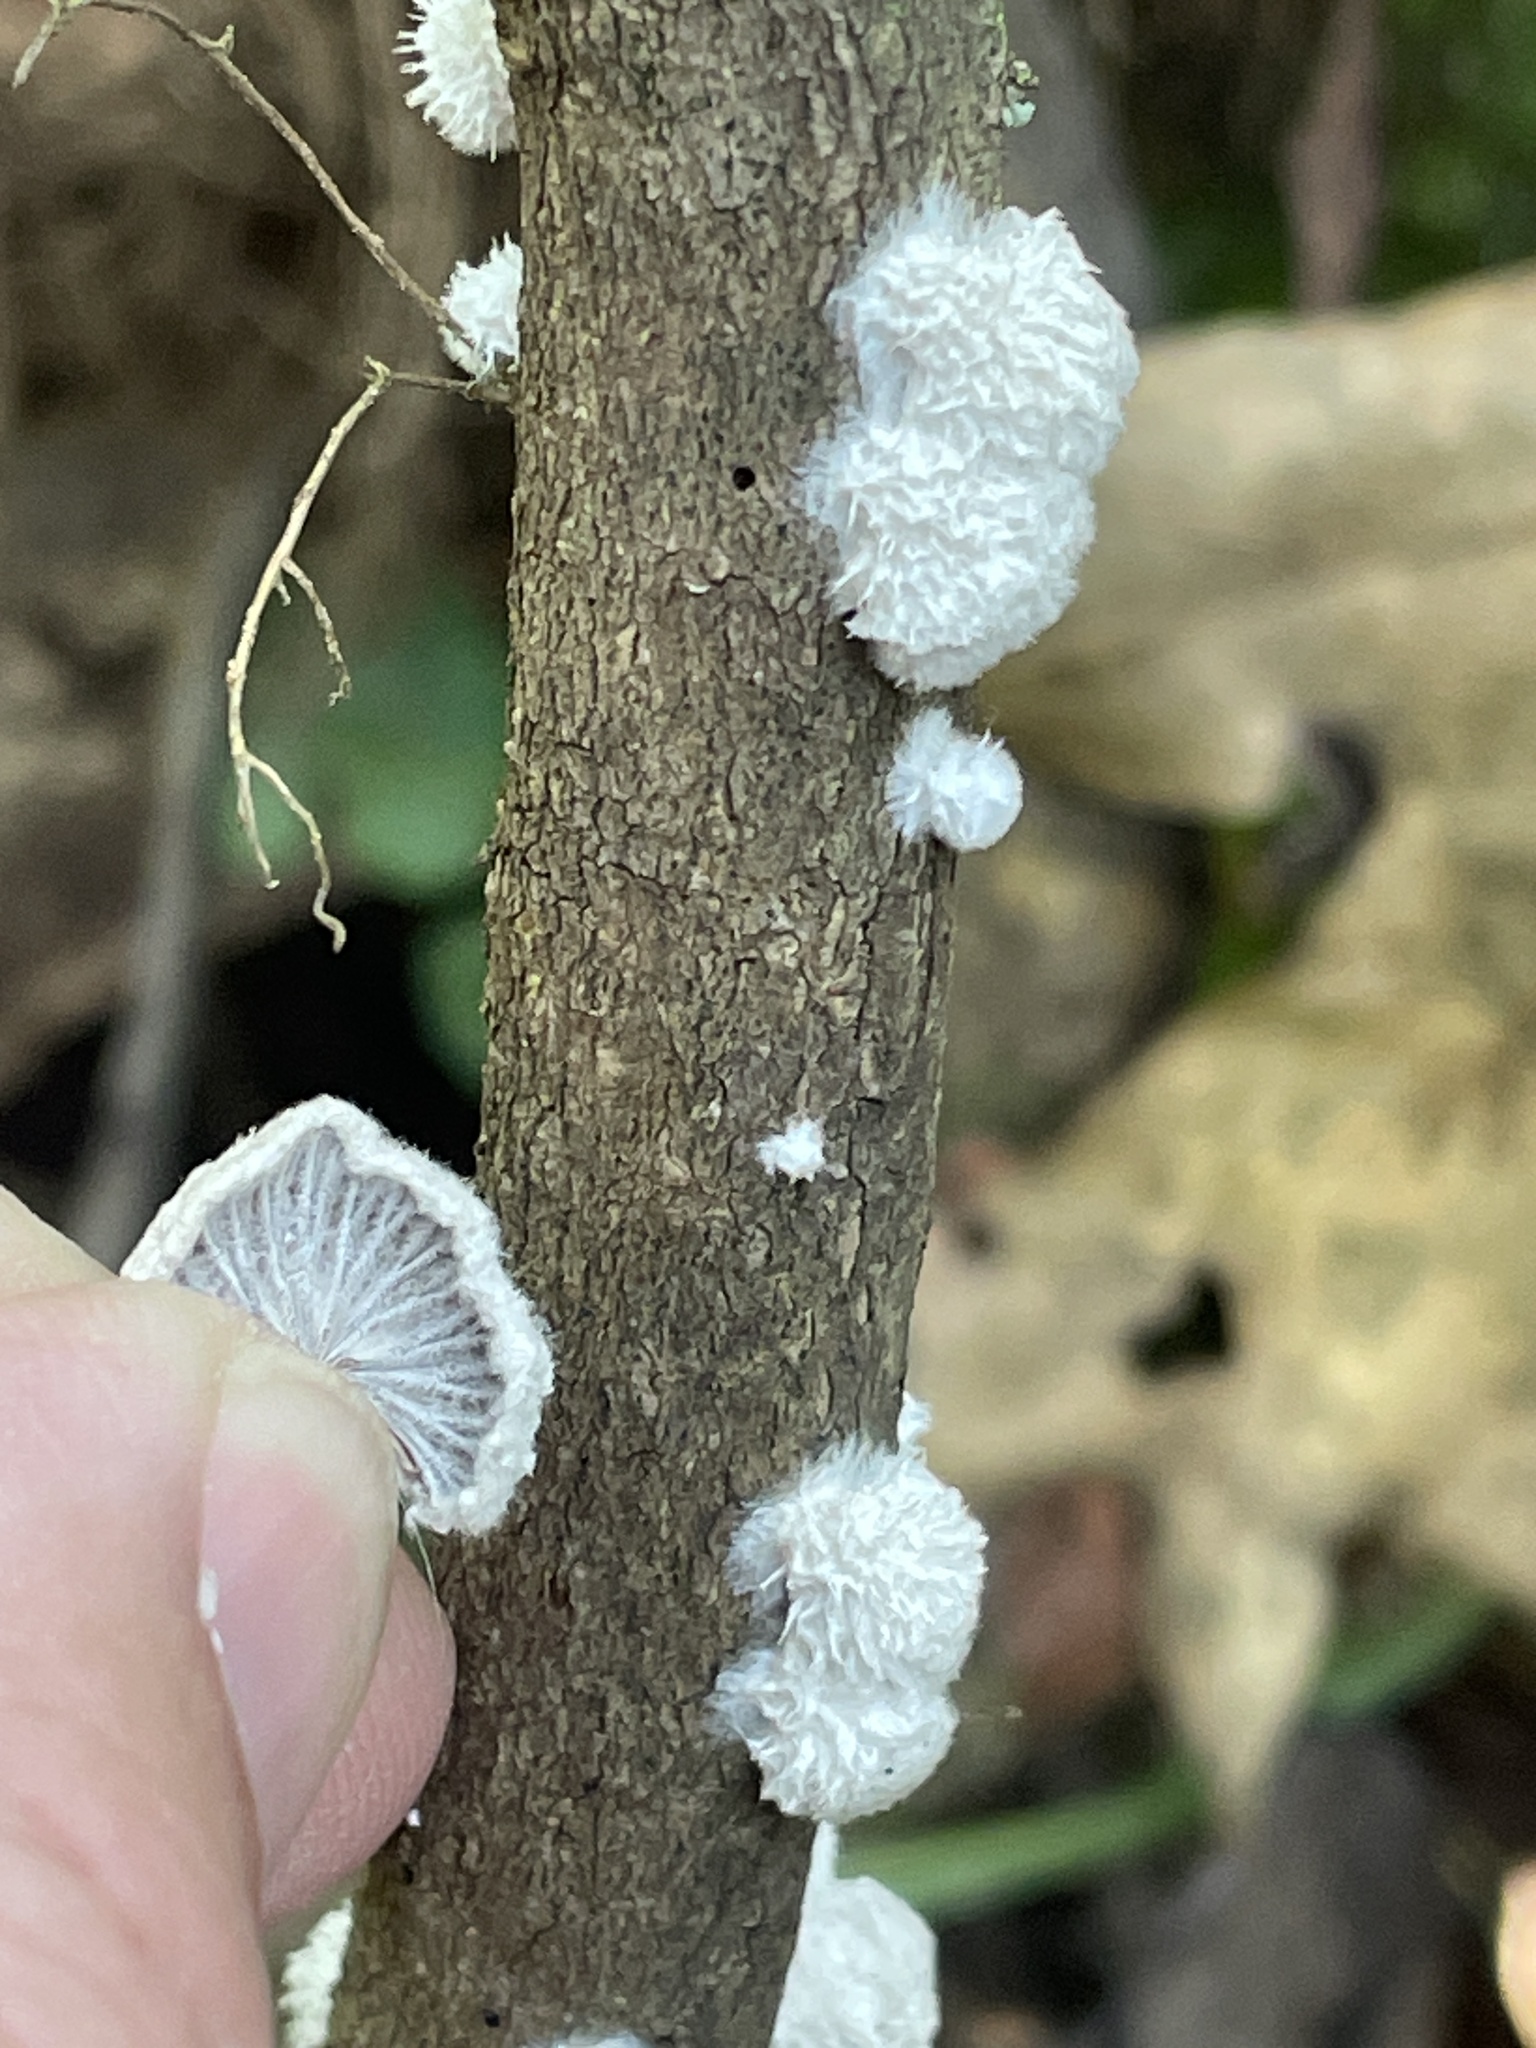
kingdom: Fungi
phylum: Basidiomycota
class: Agaricomycetes
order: Agaricales
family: Schizophyllaceae
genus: Schizophyllum
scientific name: Schizophyllum commune
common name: Common porecrust
